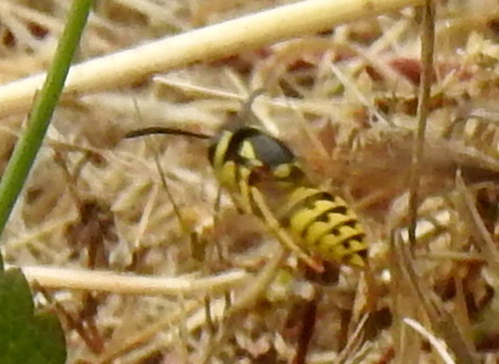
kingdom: Animalia
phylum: Arthropoda
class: Insecta
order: Hymenoptera
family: Vespidae
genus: Vespula
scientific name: Vespula pensylvanica
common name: Western yellowjacket
